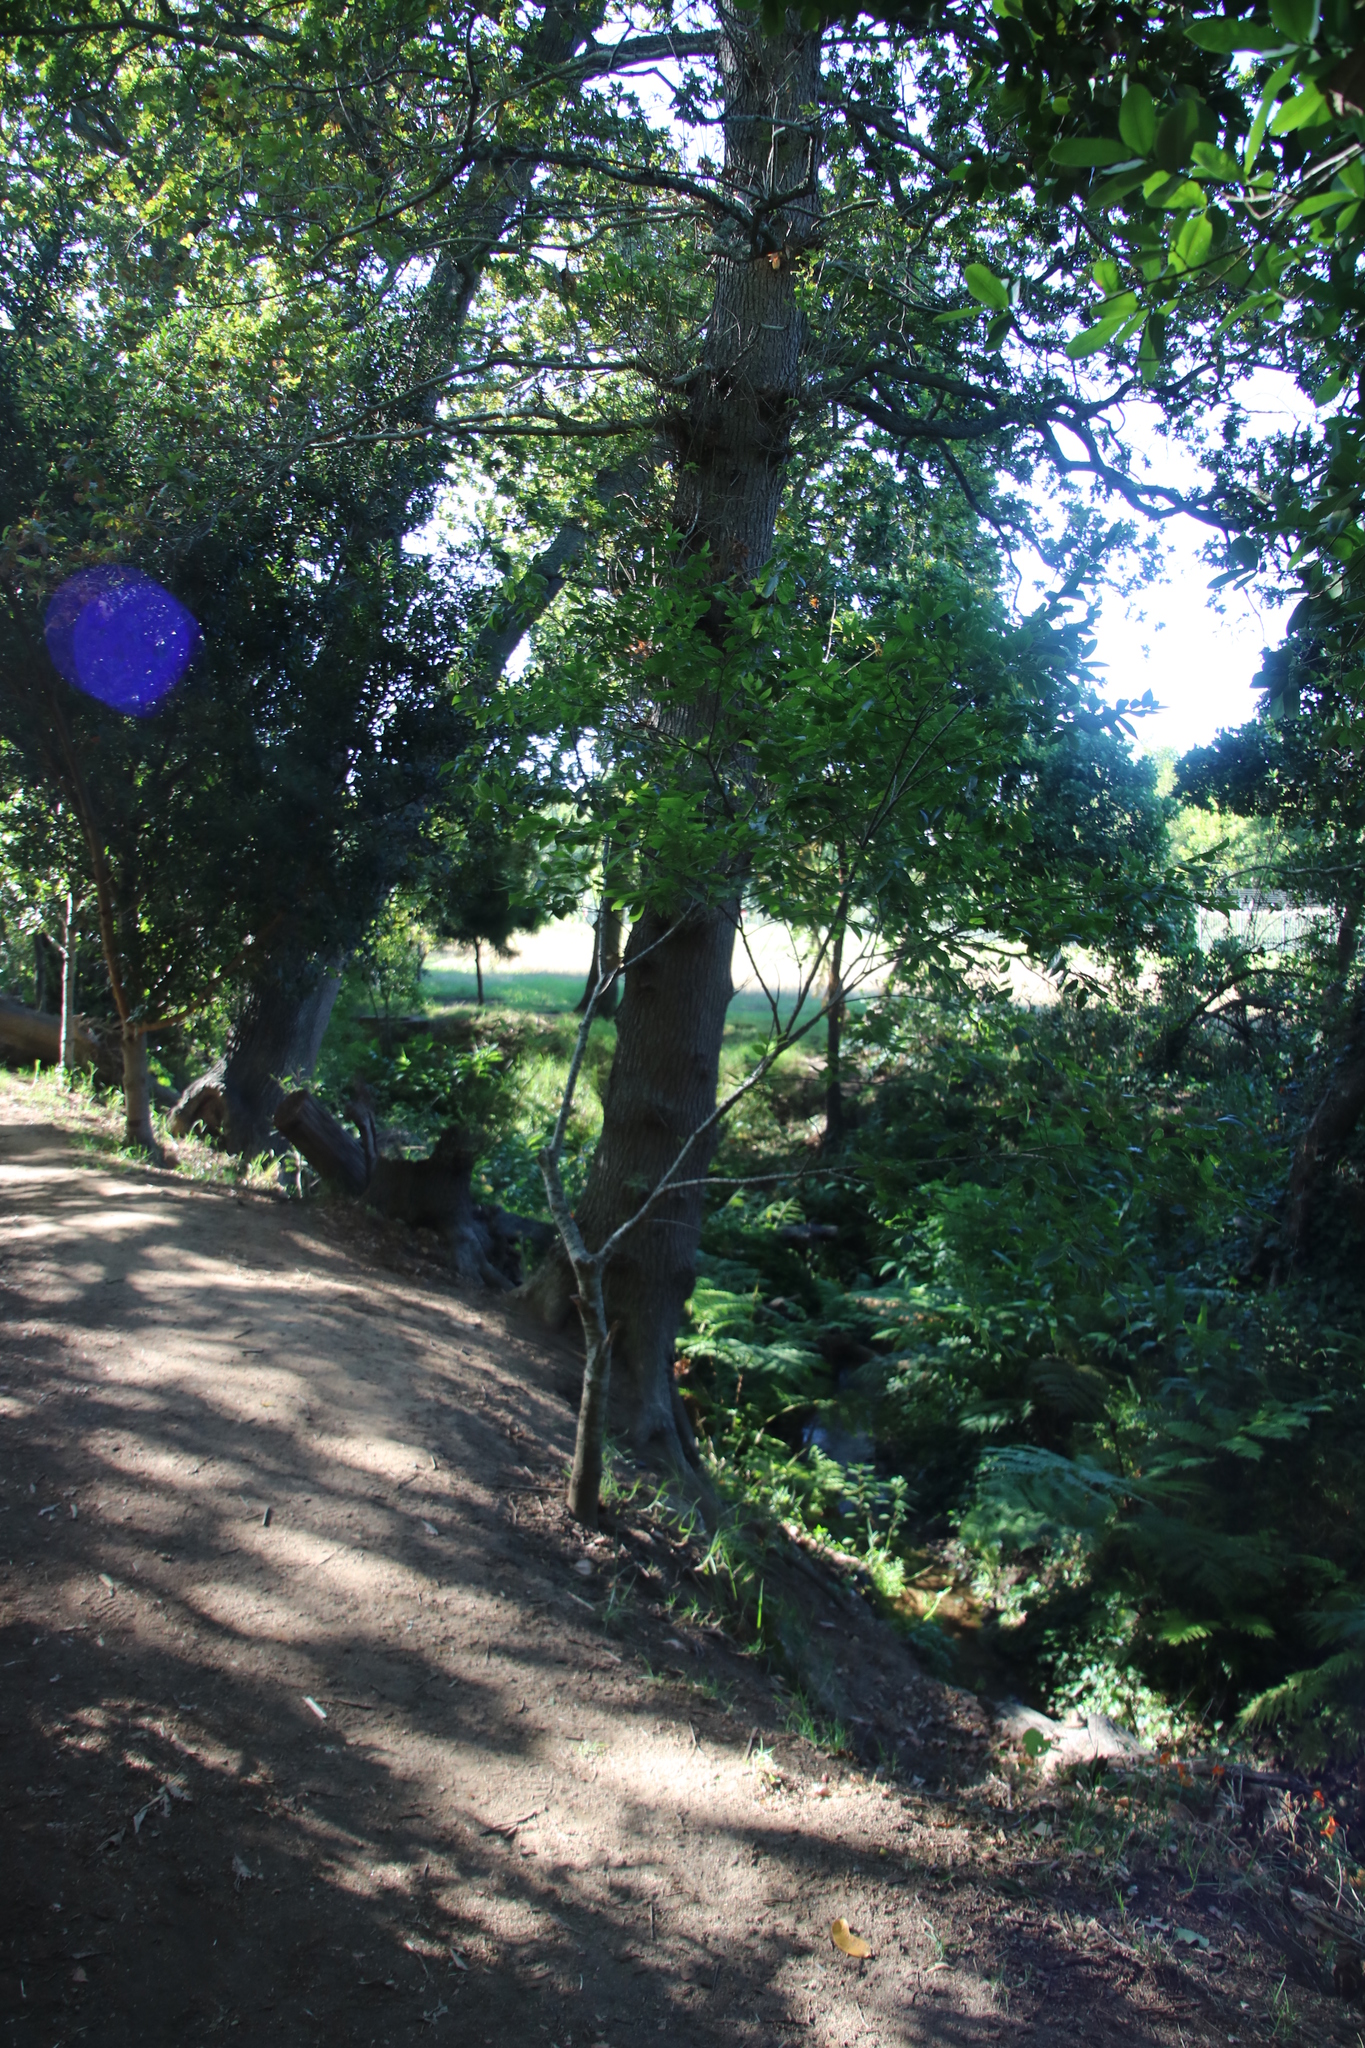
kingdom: Plantae
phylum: Tracheophyta
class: Magnoliopsida
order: Rosales
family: Cannabaceae
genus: Celtis
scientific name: Celtis sinensis
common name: Chinese hackberry
